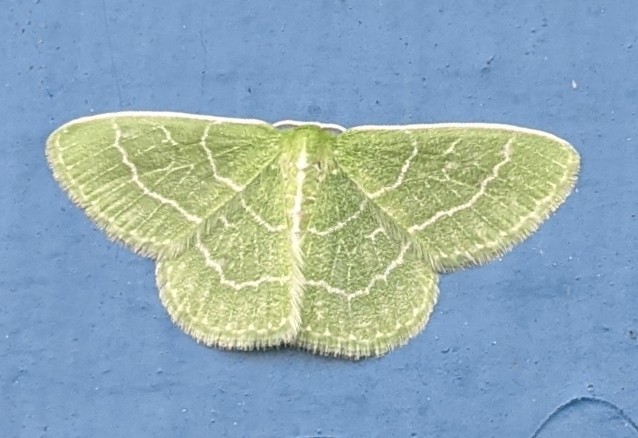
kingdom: Animalia
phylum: Arthropoda
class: Insecta
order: Lepidoptera
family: Geometridae
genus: Synchlora
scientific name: Synchlora aerata
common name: Wavy-lined emerald
